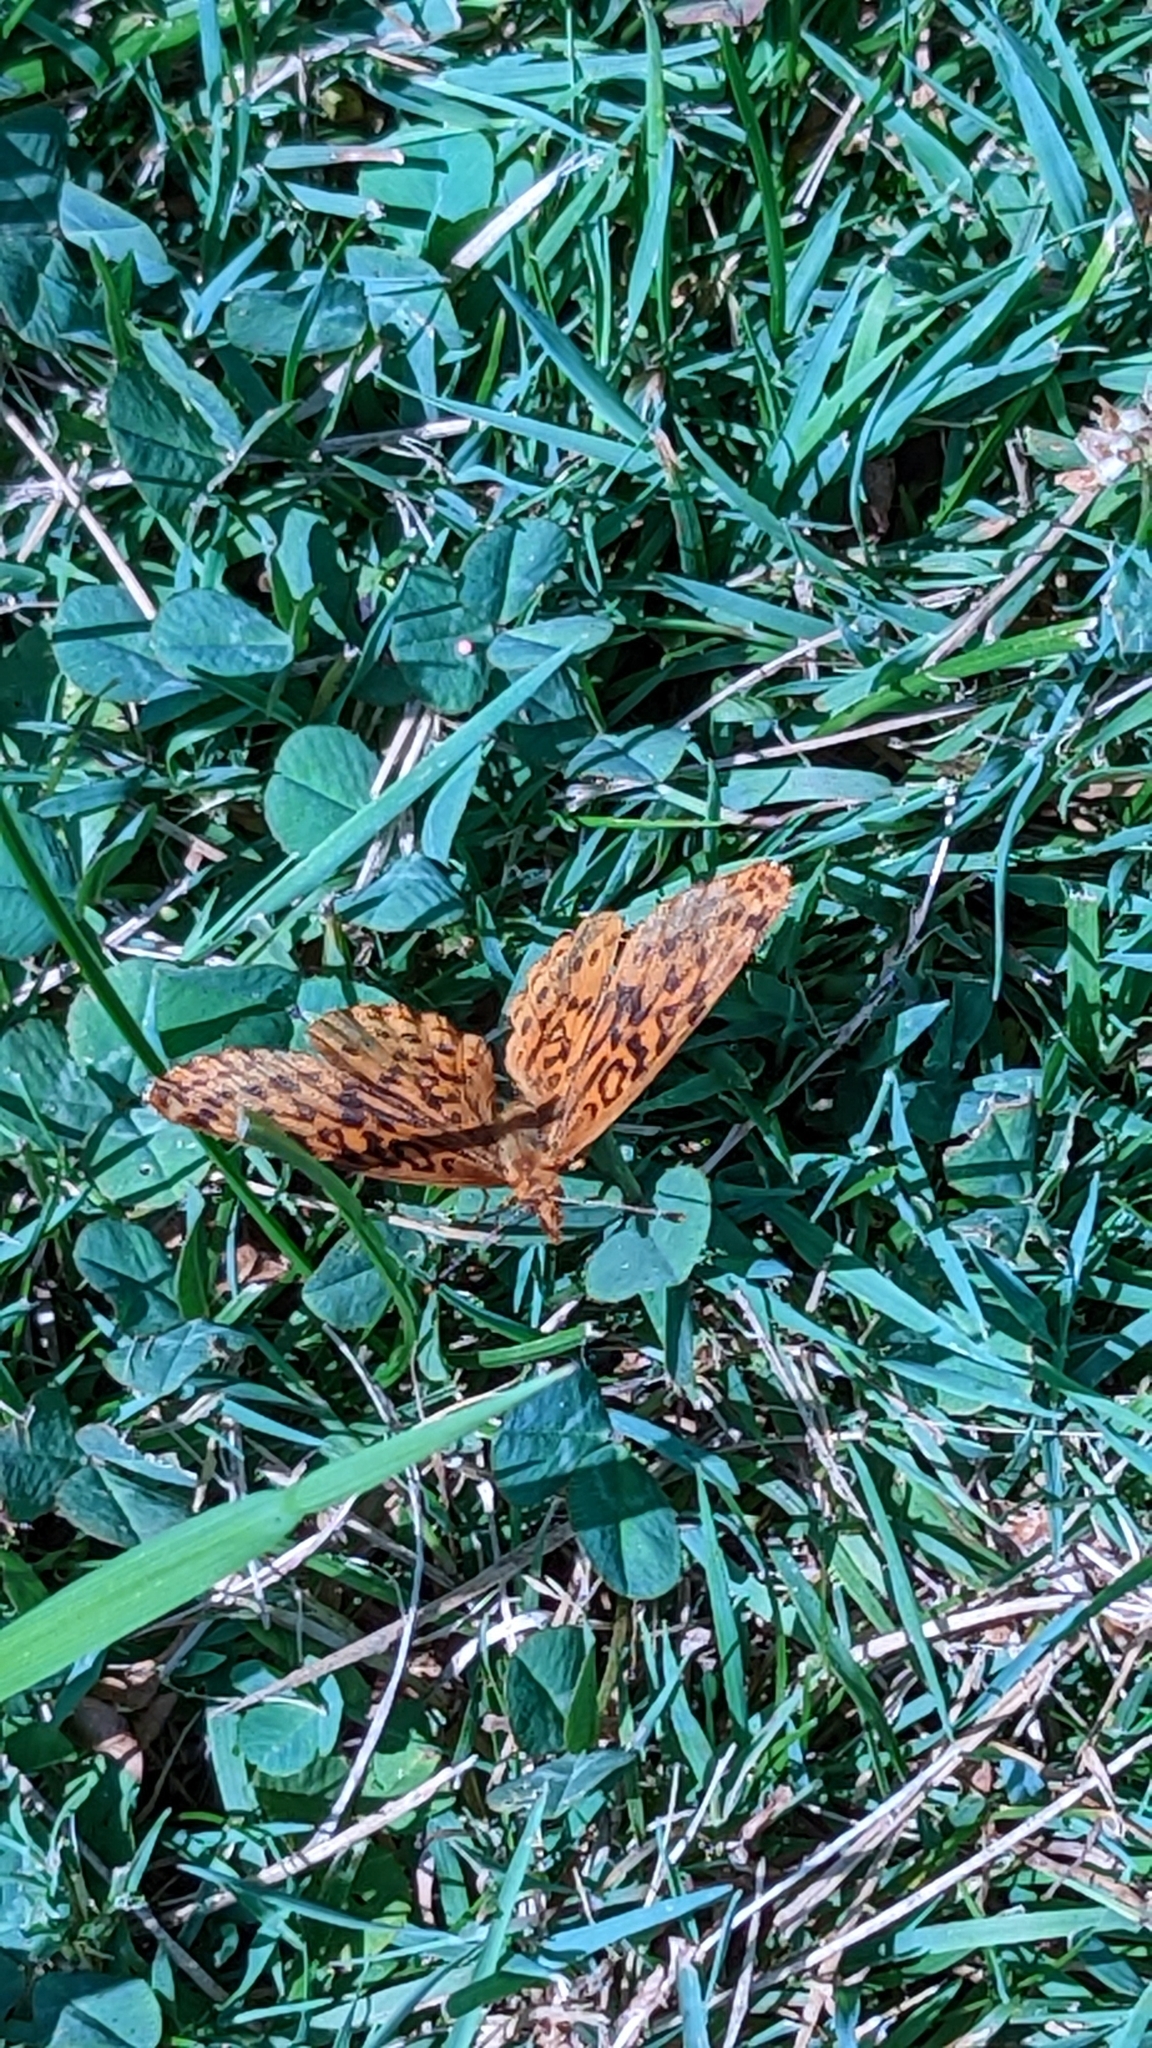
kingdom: Animalia
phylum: Arthropoda
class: Insecta
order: Lepidoptera
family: Nymphalidae
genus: Clossiana
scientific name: Clossiana toddi
